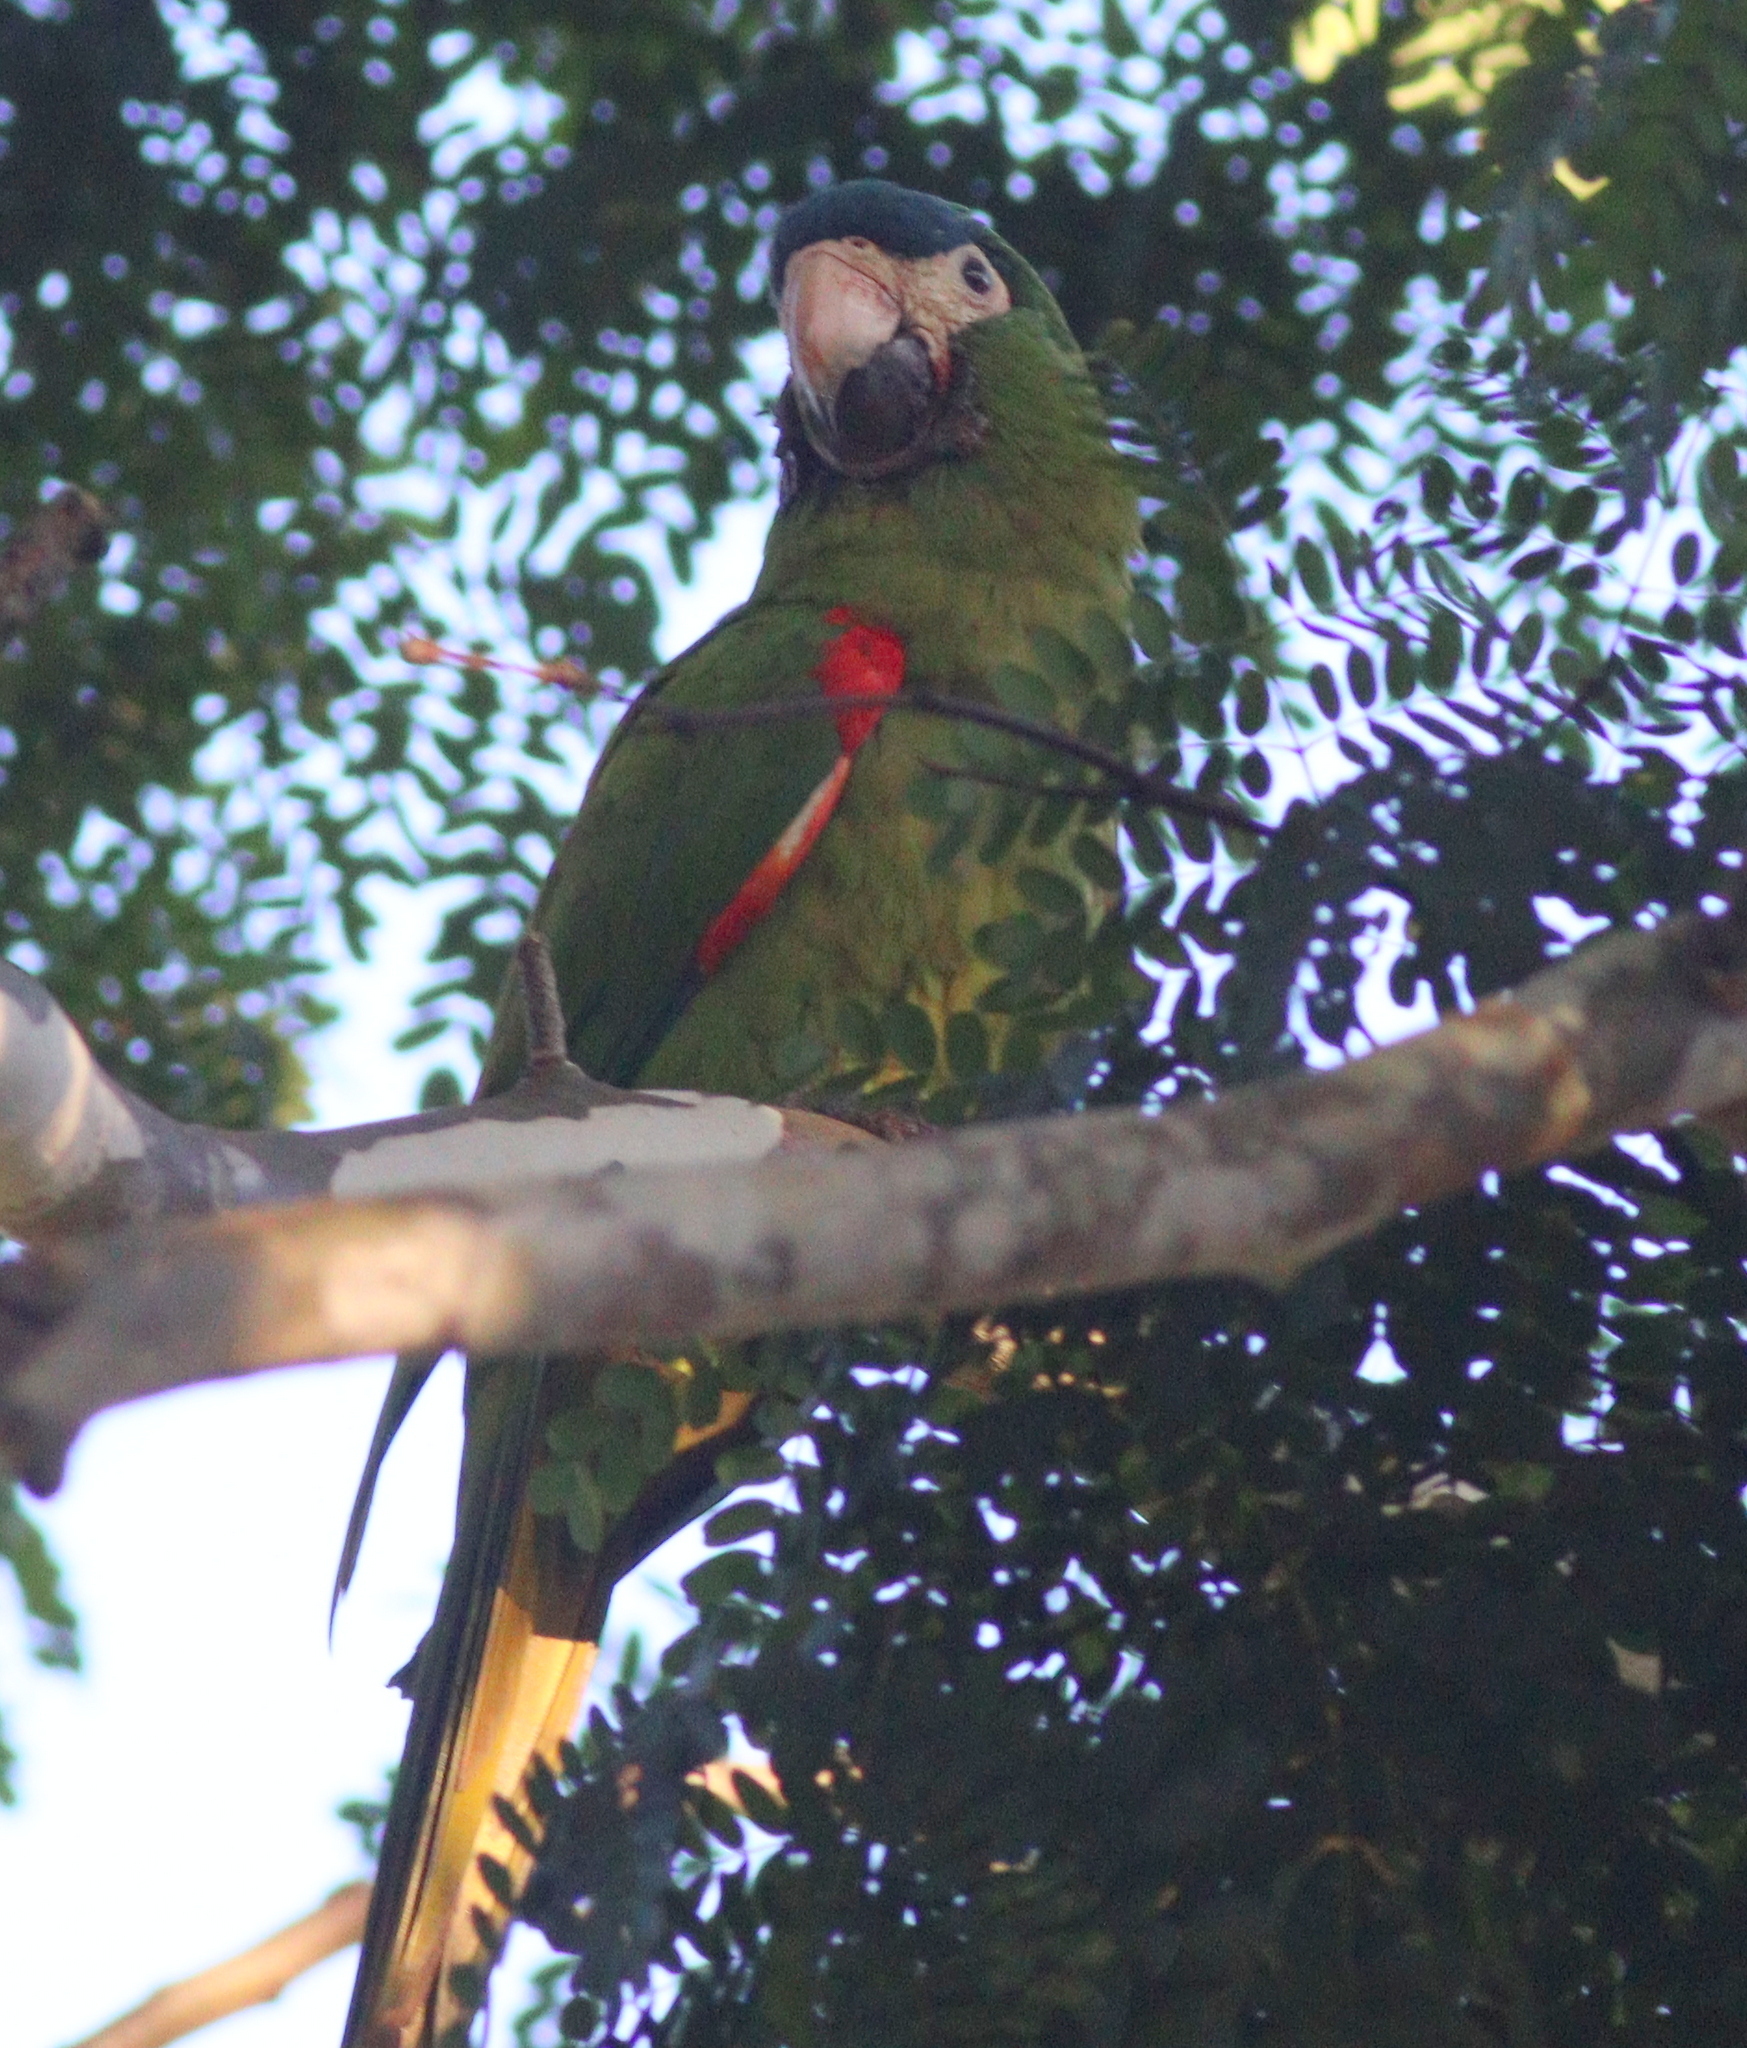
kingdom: Animalia
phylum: Chordata
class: Aves
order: Psittaciformes
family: Psittacidae
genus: Diopsittaca
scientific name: Diopsittaca nobilis
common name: Red-shouldered macaw
